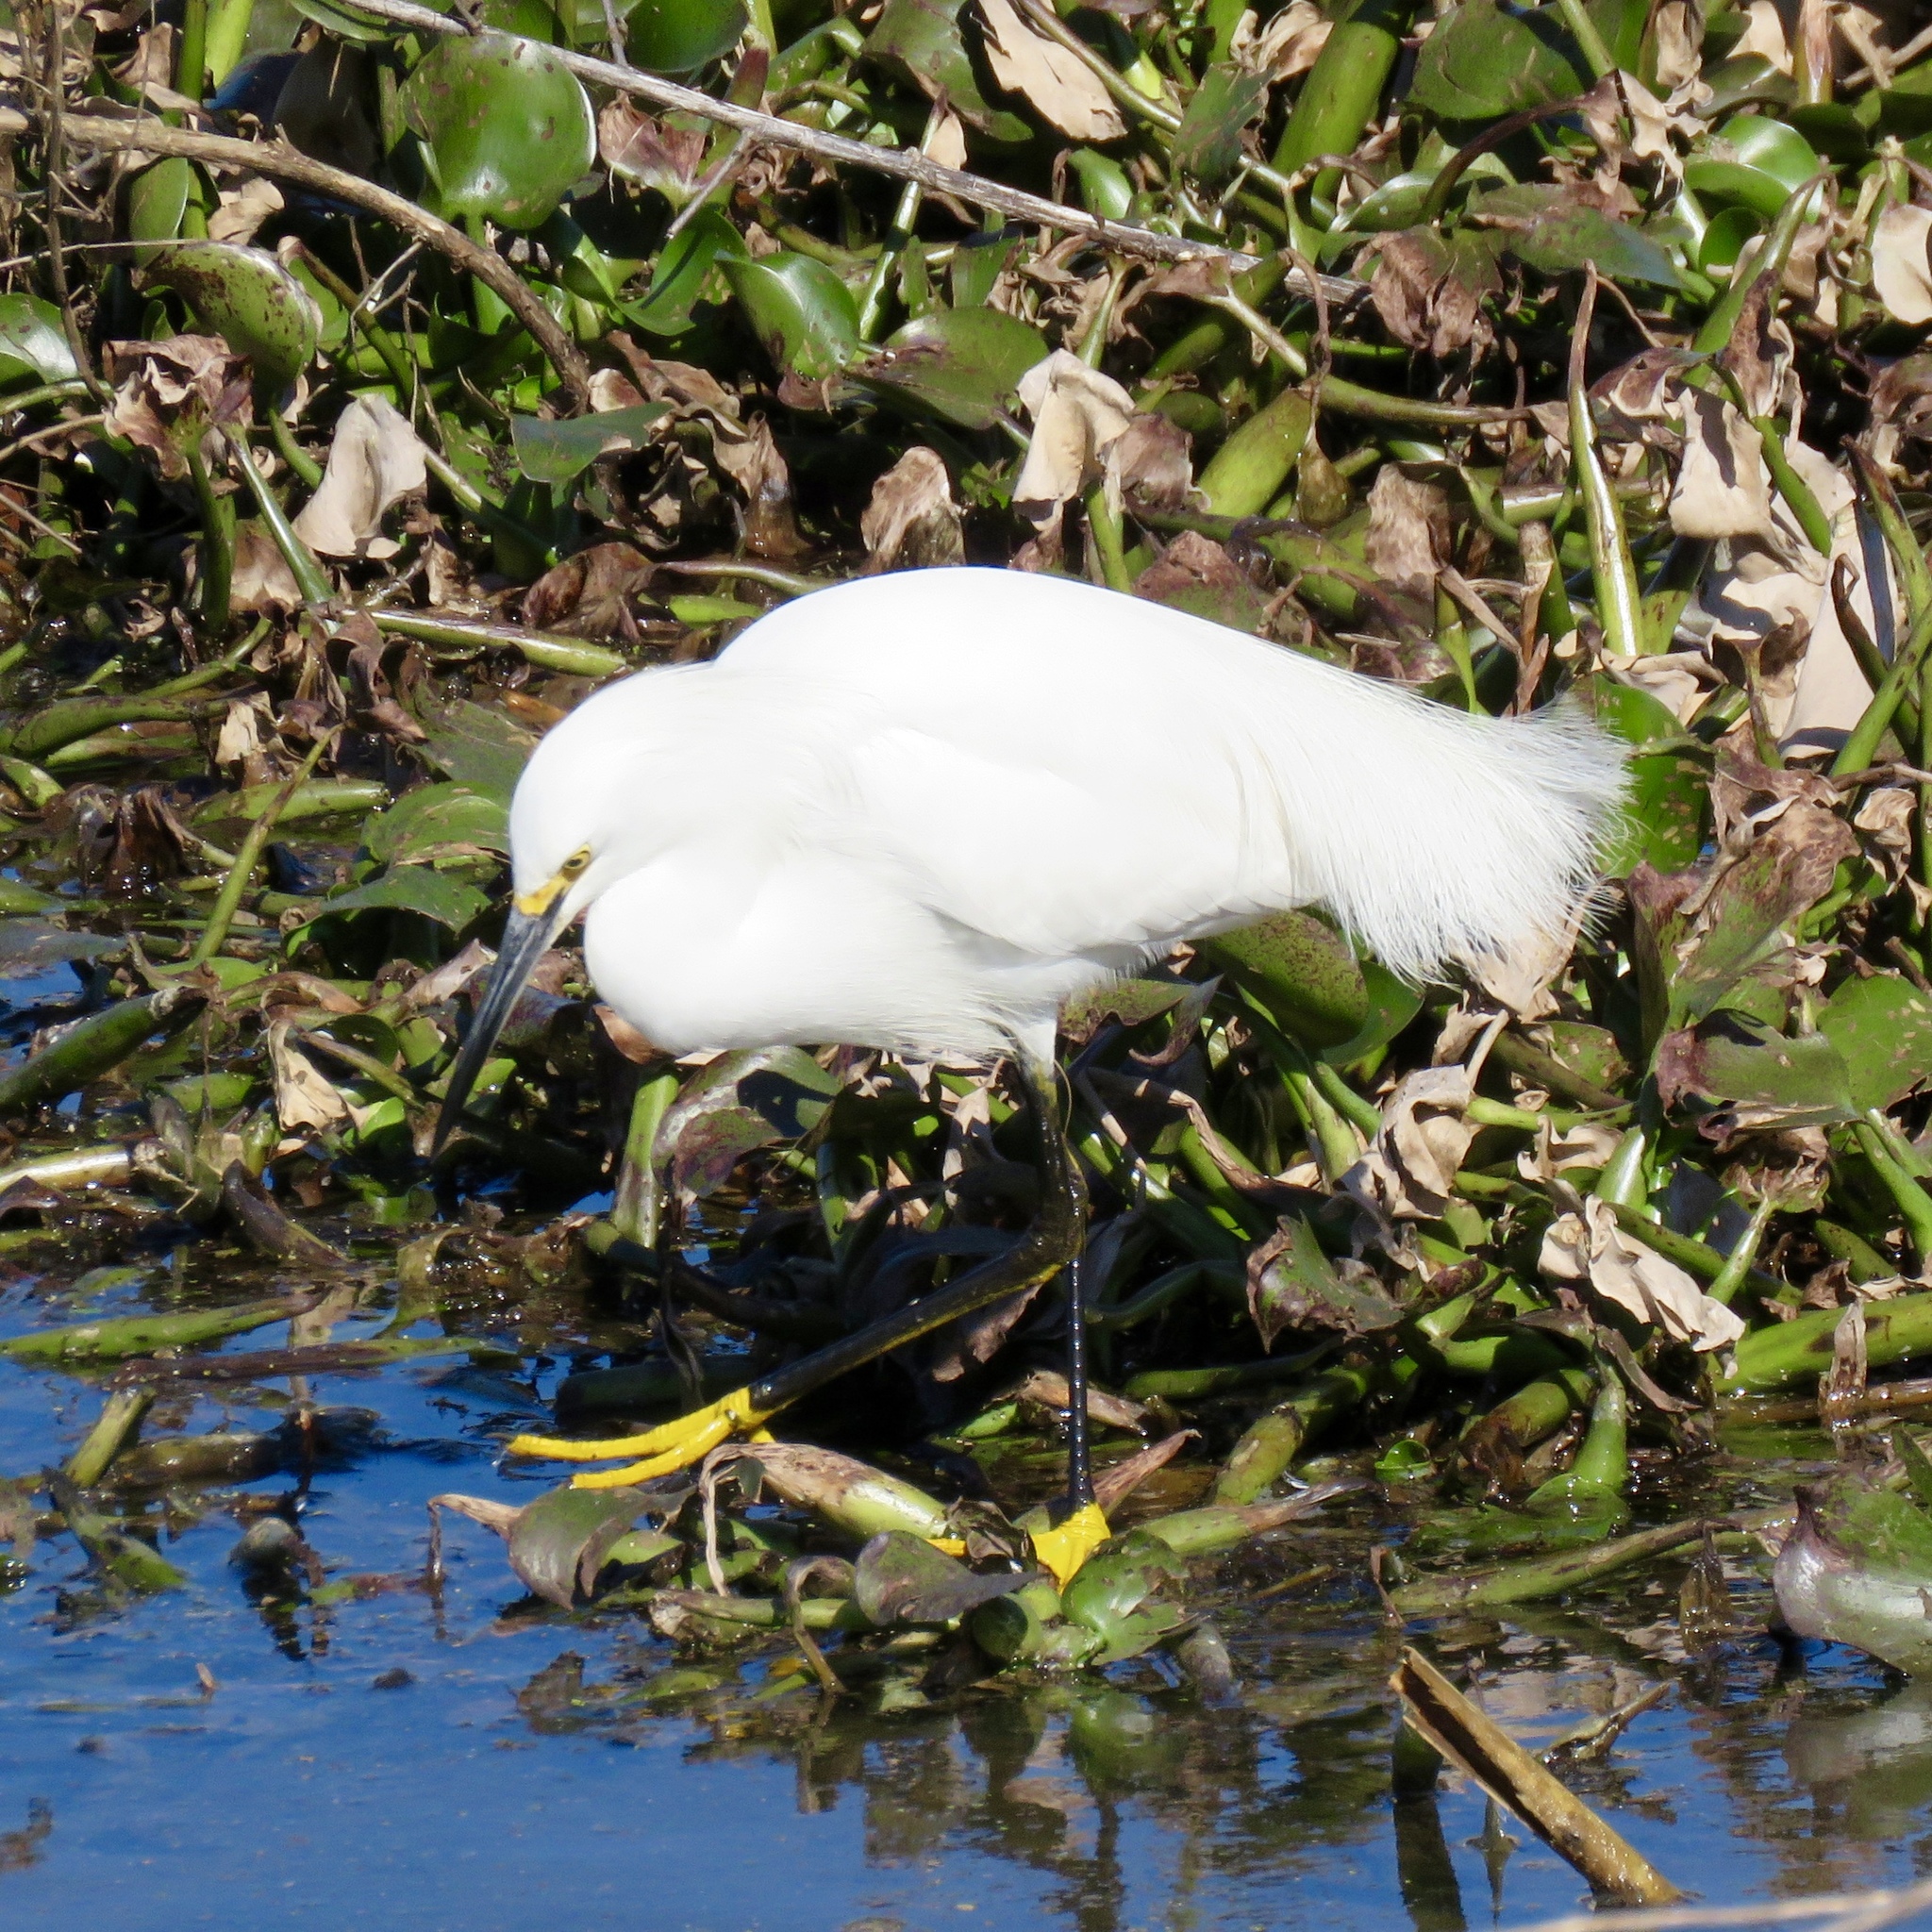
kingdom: Animalia
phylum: Chordata
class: Aves
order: Pelecaniformes
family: Ardeidae
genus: Egretta
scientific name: Egretta thula
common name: Snowy egret
